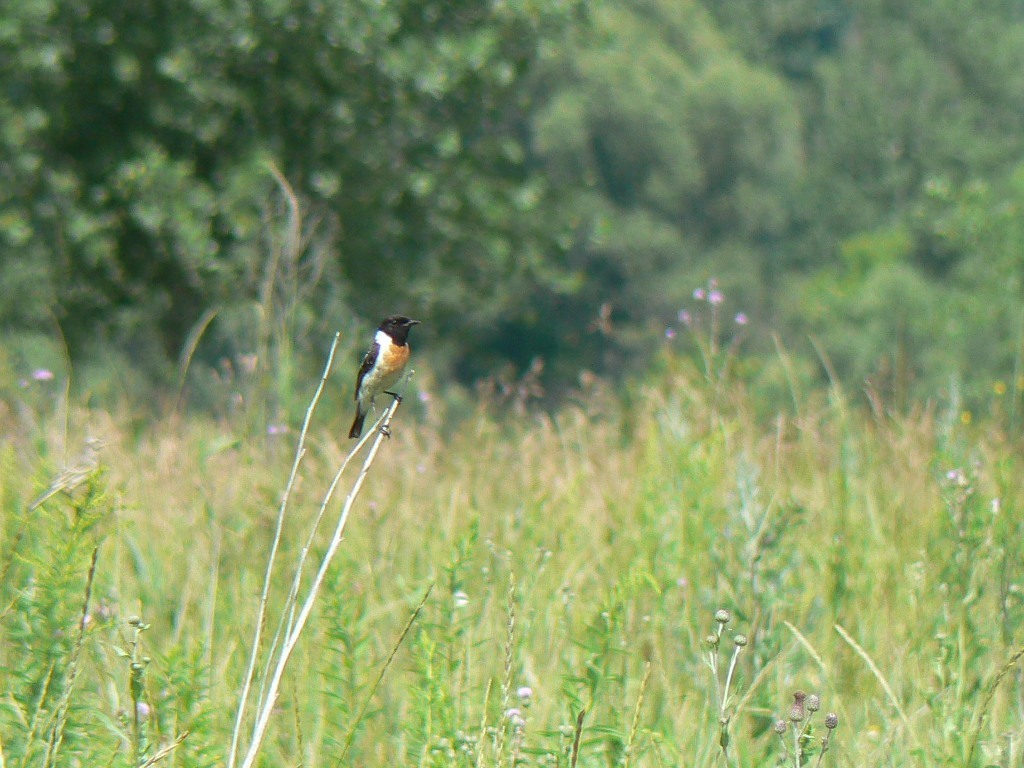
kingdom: Animalia
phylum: Chordata
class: Aves
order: Passeriformes
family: Muscicapidae
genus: Saxicola
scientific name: Saxicola maurus
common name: Siberian stonechat
